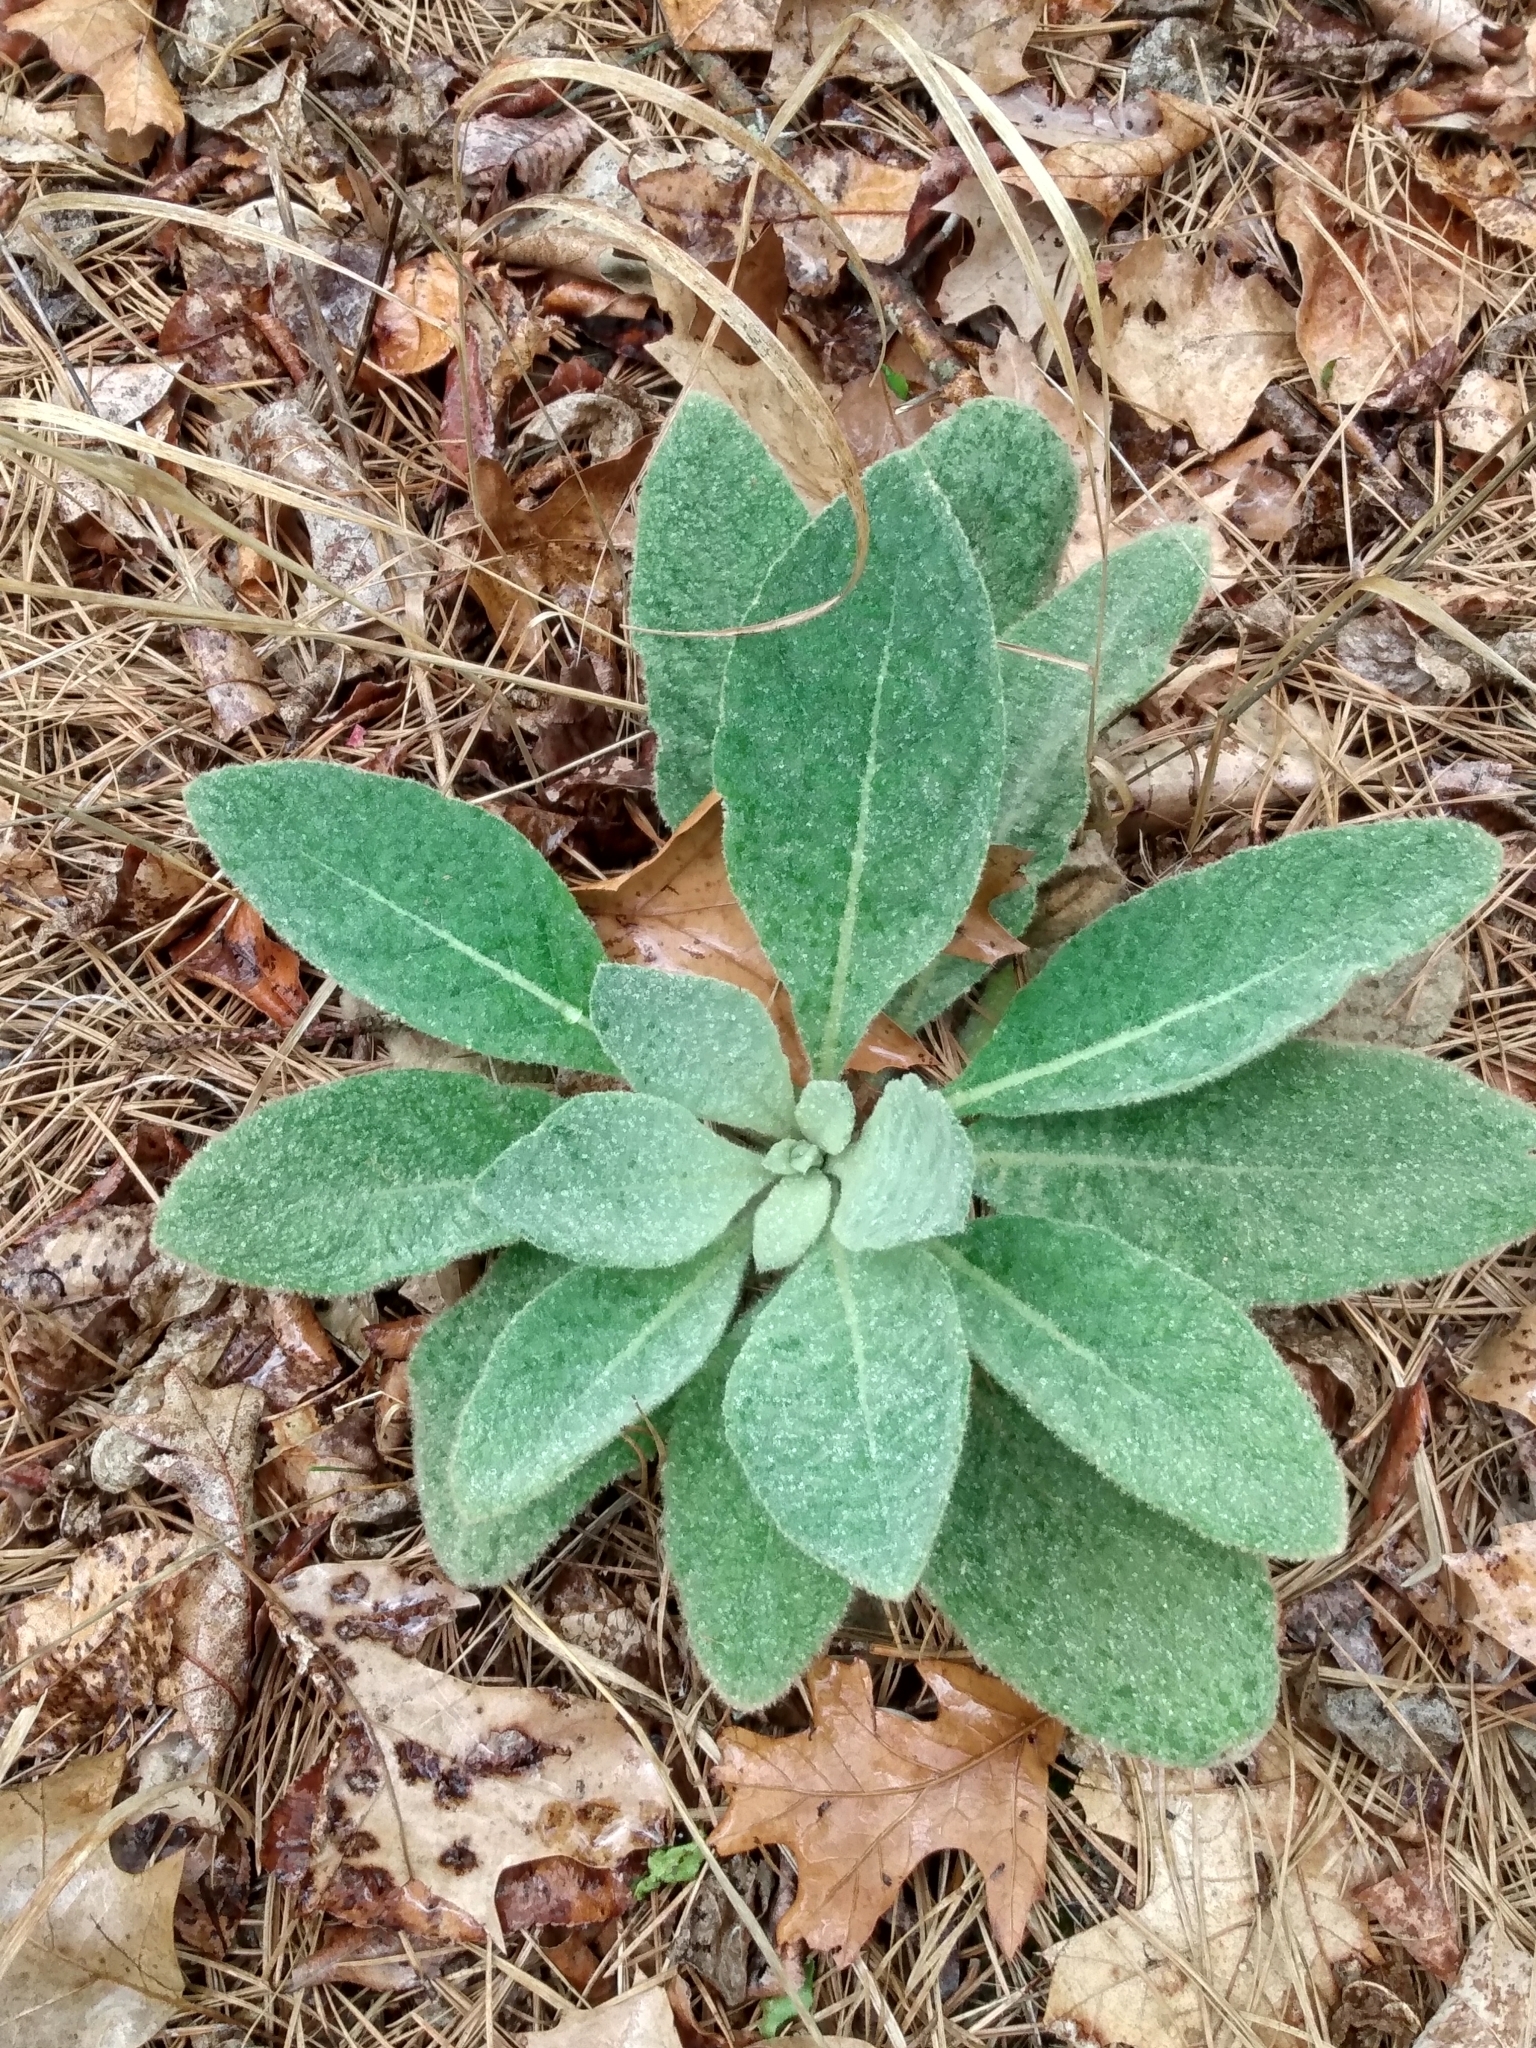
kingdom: Plantae
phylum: Tracheophyta
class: Magnoliopsida
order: Lamiales
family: Scrophulariaceae
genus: Verbascum
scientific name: Verbascum thapsus
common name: Common mullein
